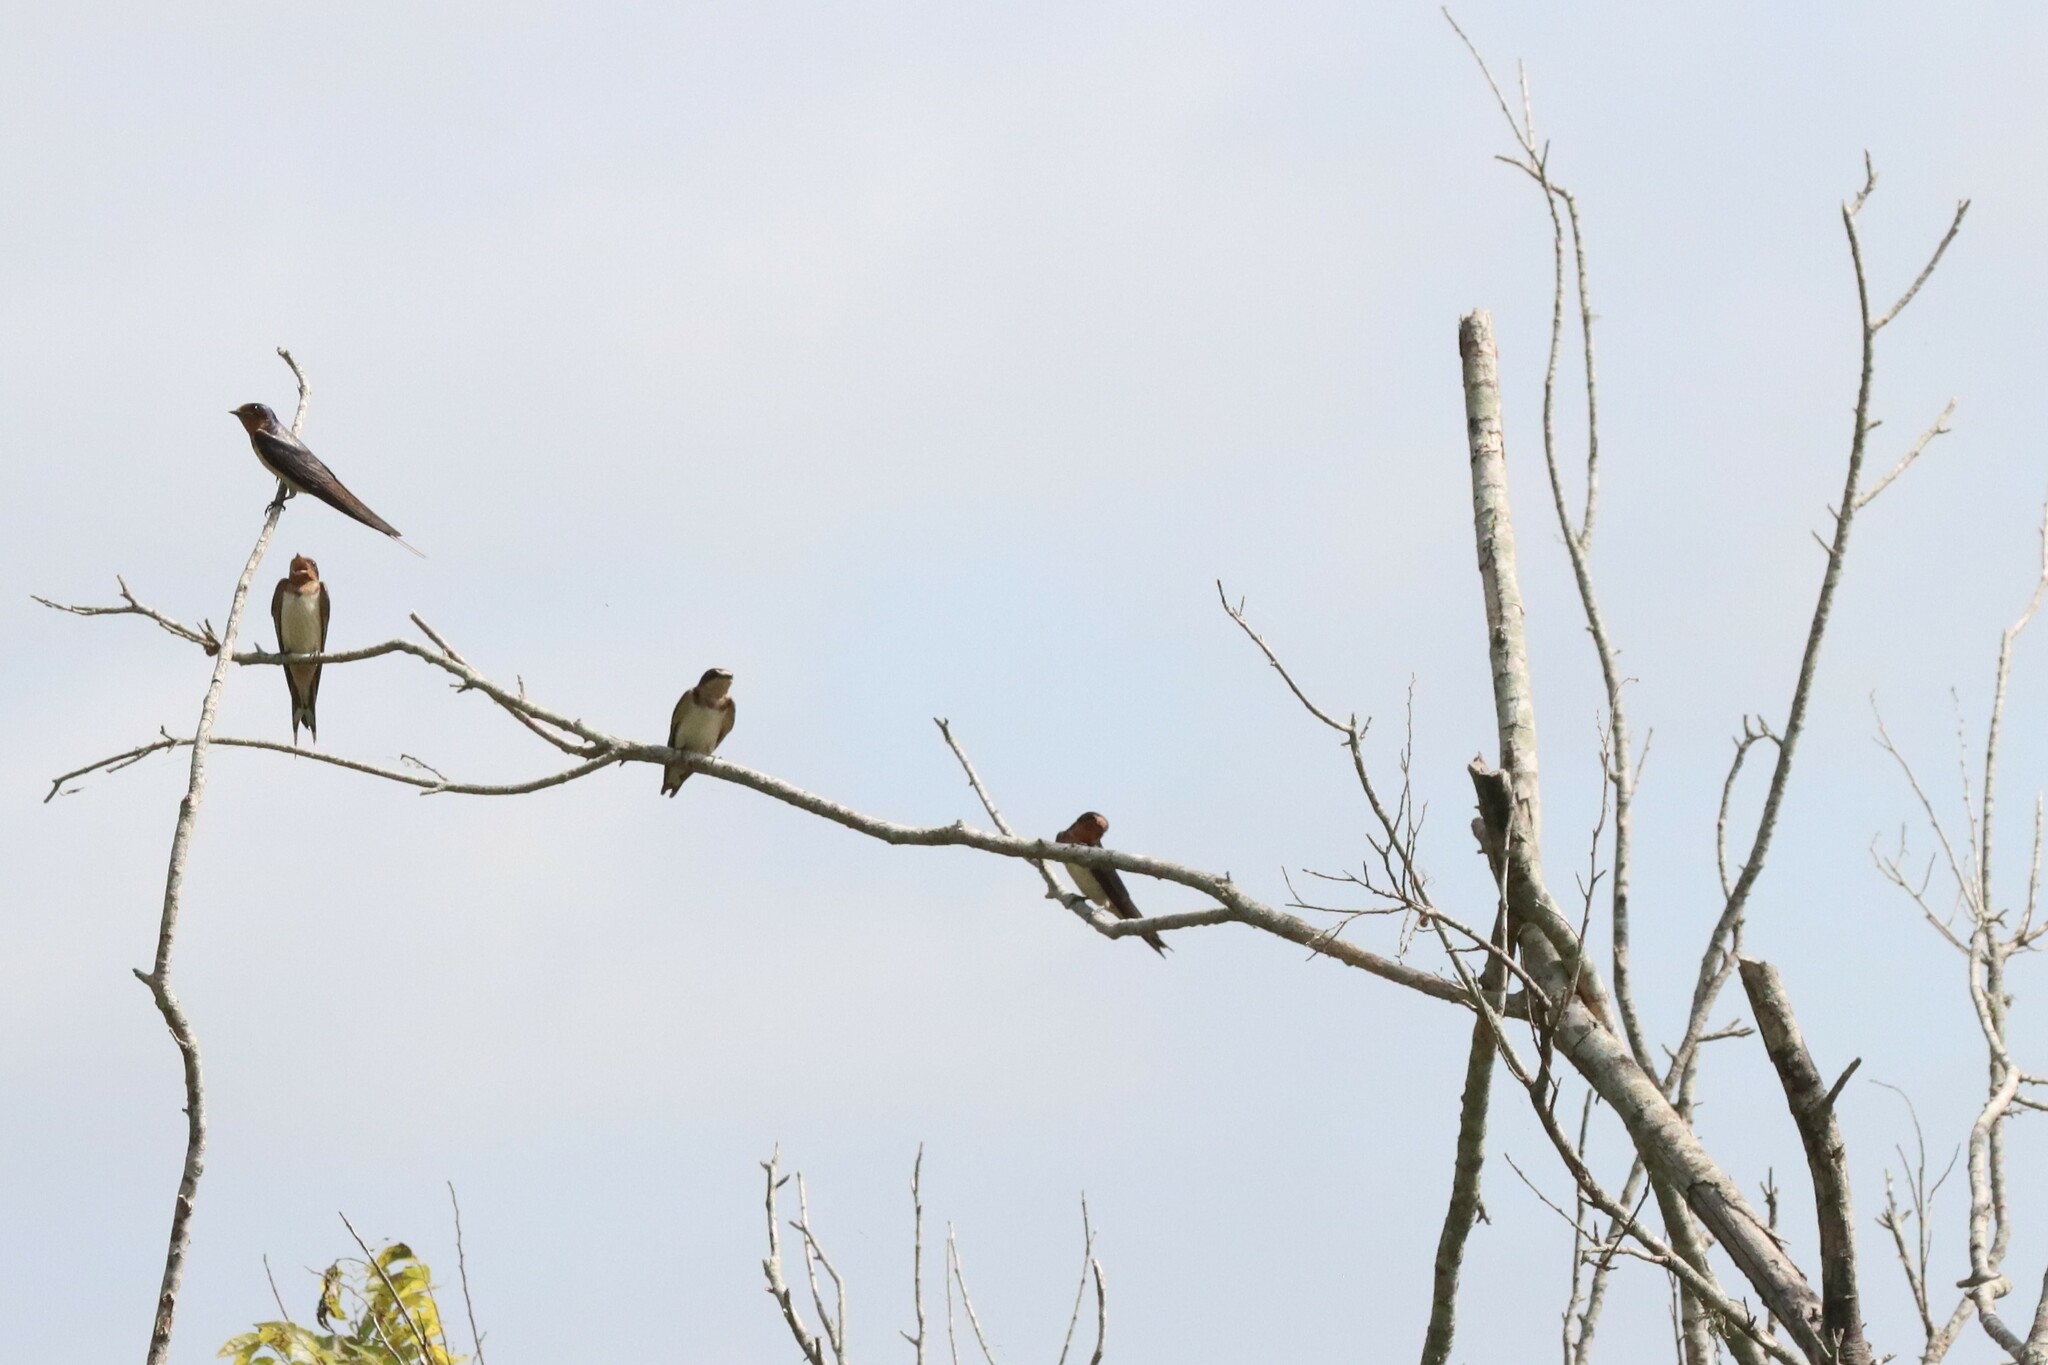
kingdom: Animalia
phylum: Chordata
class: Aves
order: Passeriformes
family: Hirundinidae
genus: Hirundo
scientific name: Hirundo rustica
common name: Barn swallow
